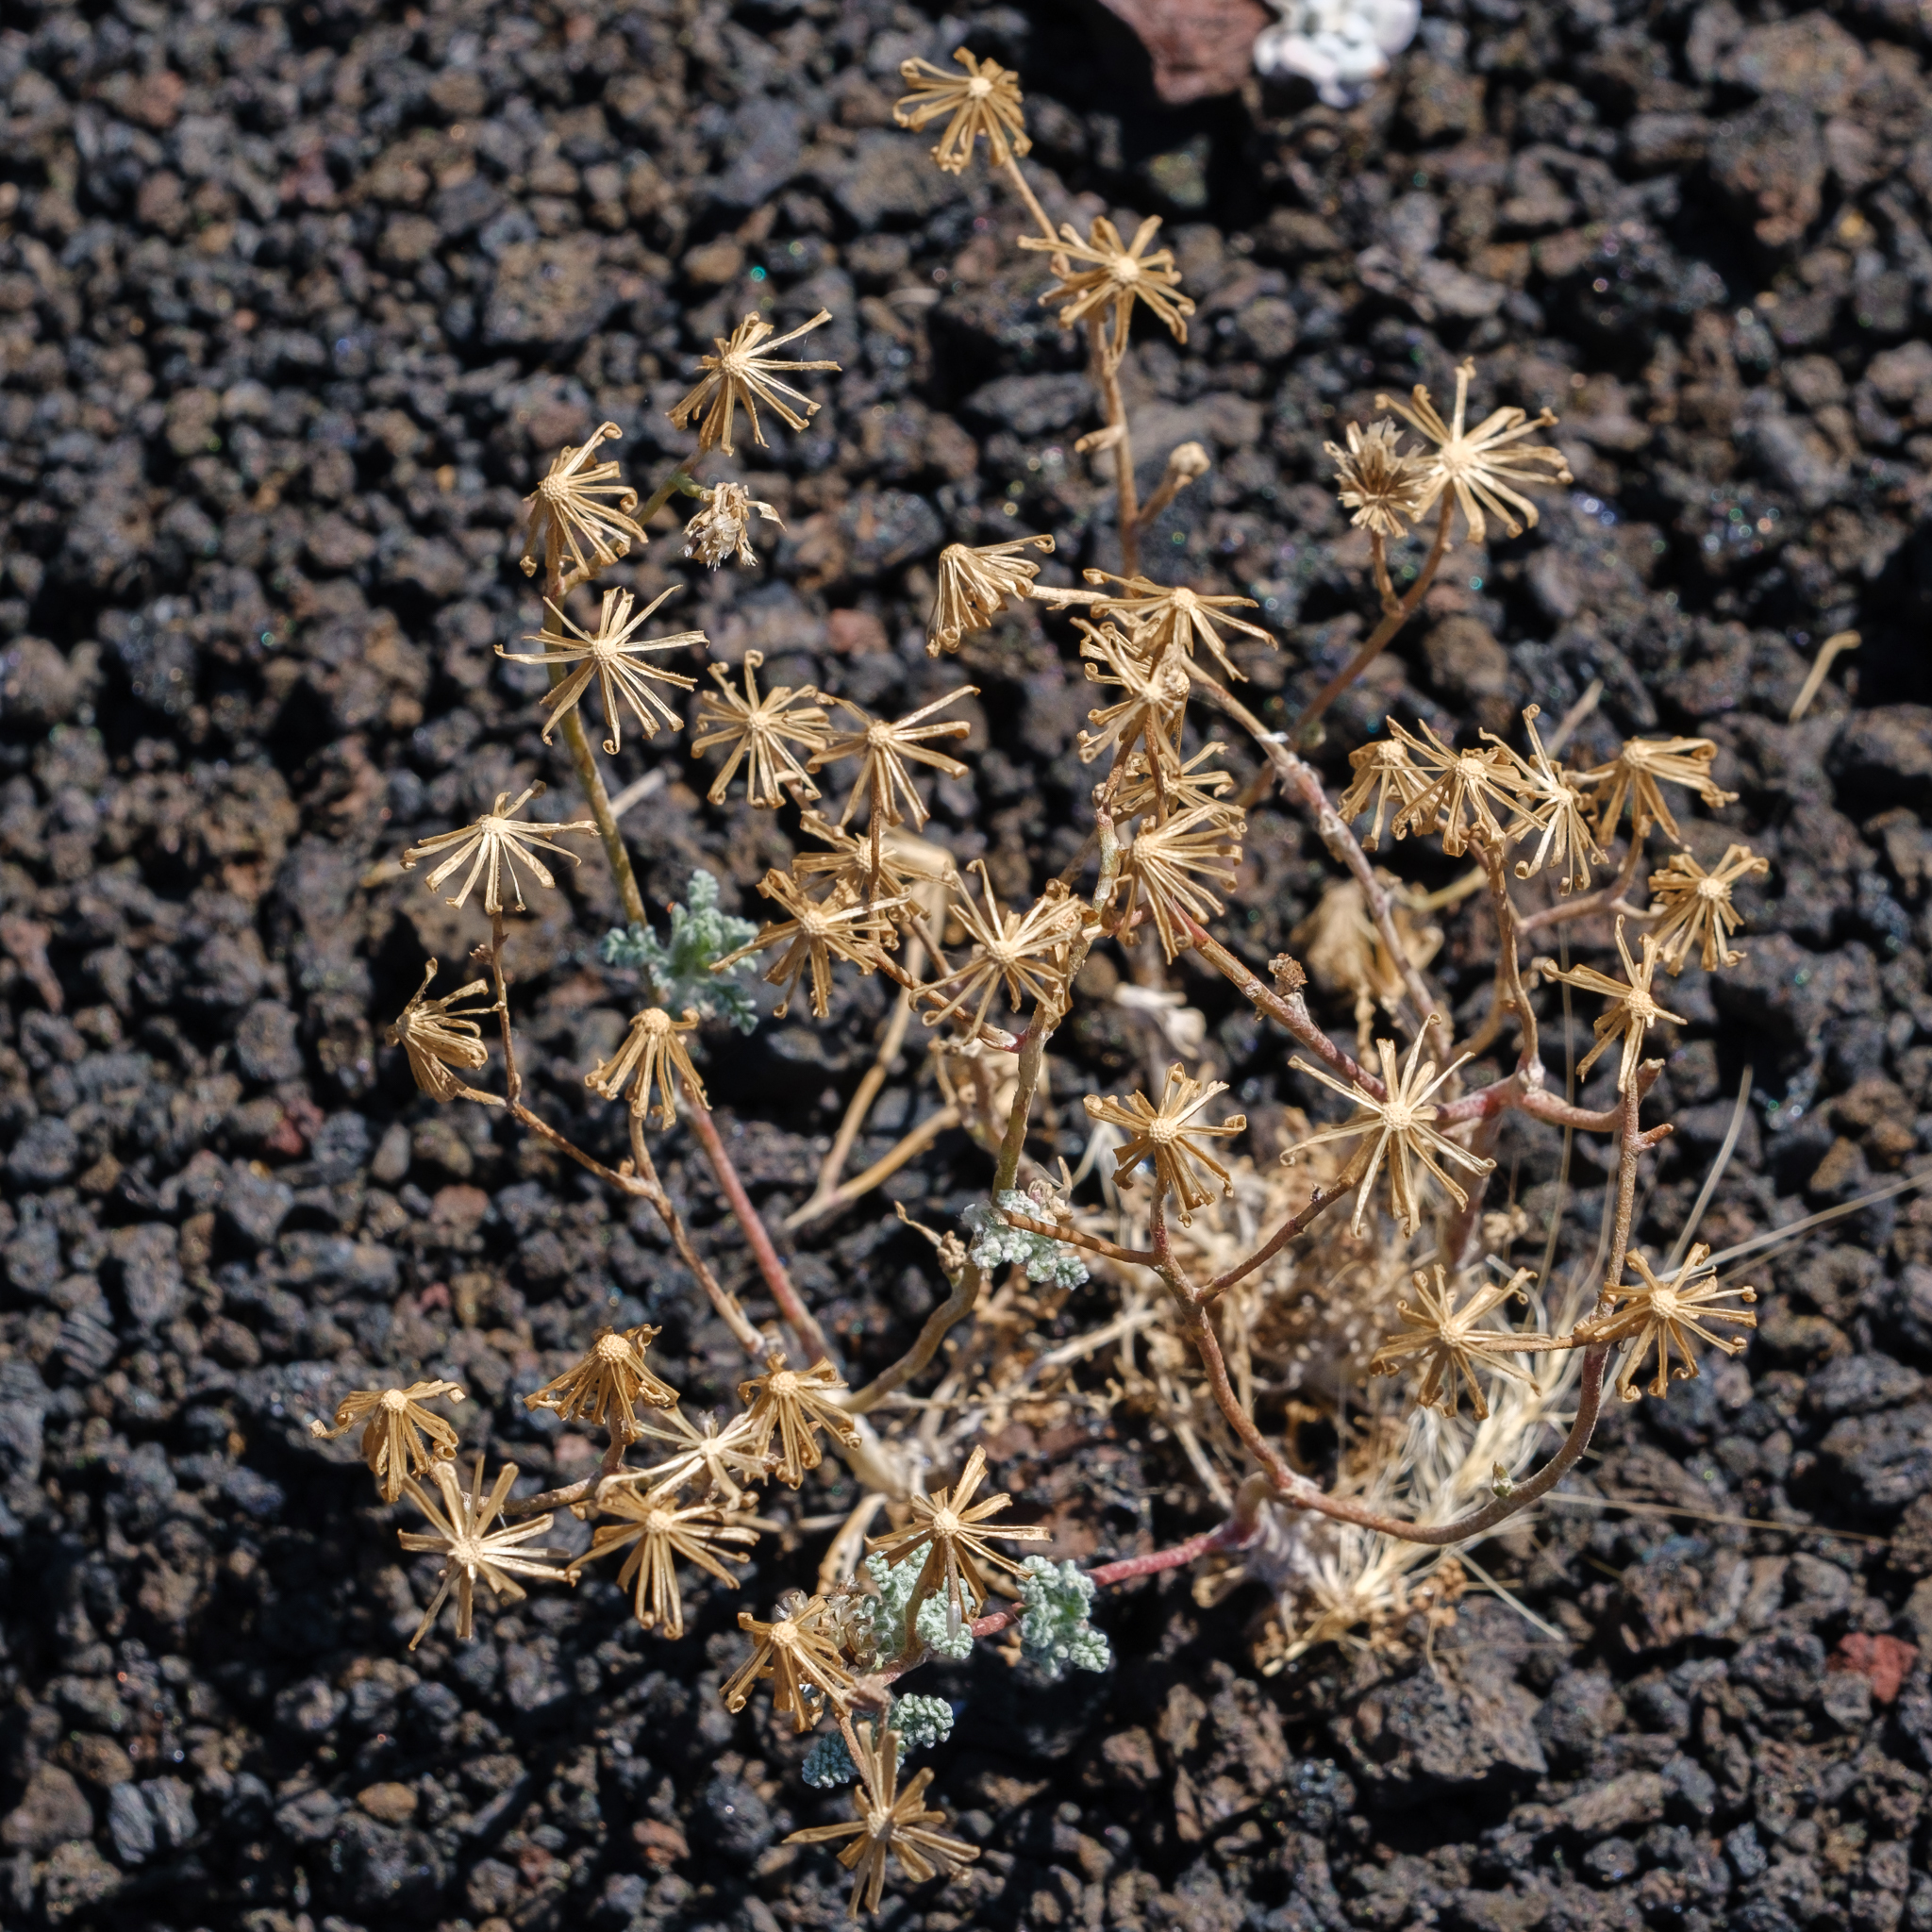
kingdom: Plantae
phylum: Tracheophyta
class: Magnoliopsida
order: Asterales
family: Asteraceae
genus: Chaenactis
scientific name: Chaenactis douglasii
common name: Hoary pincushion
